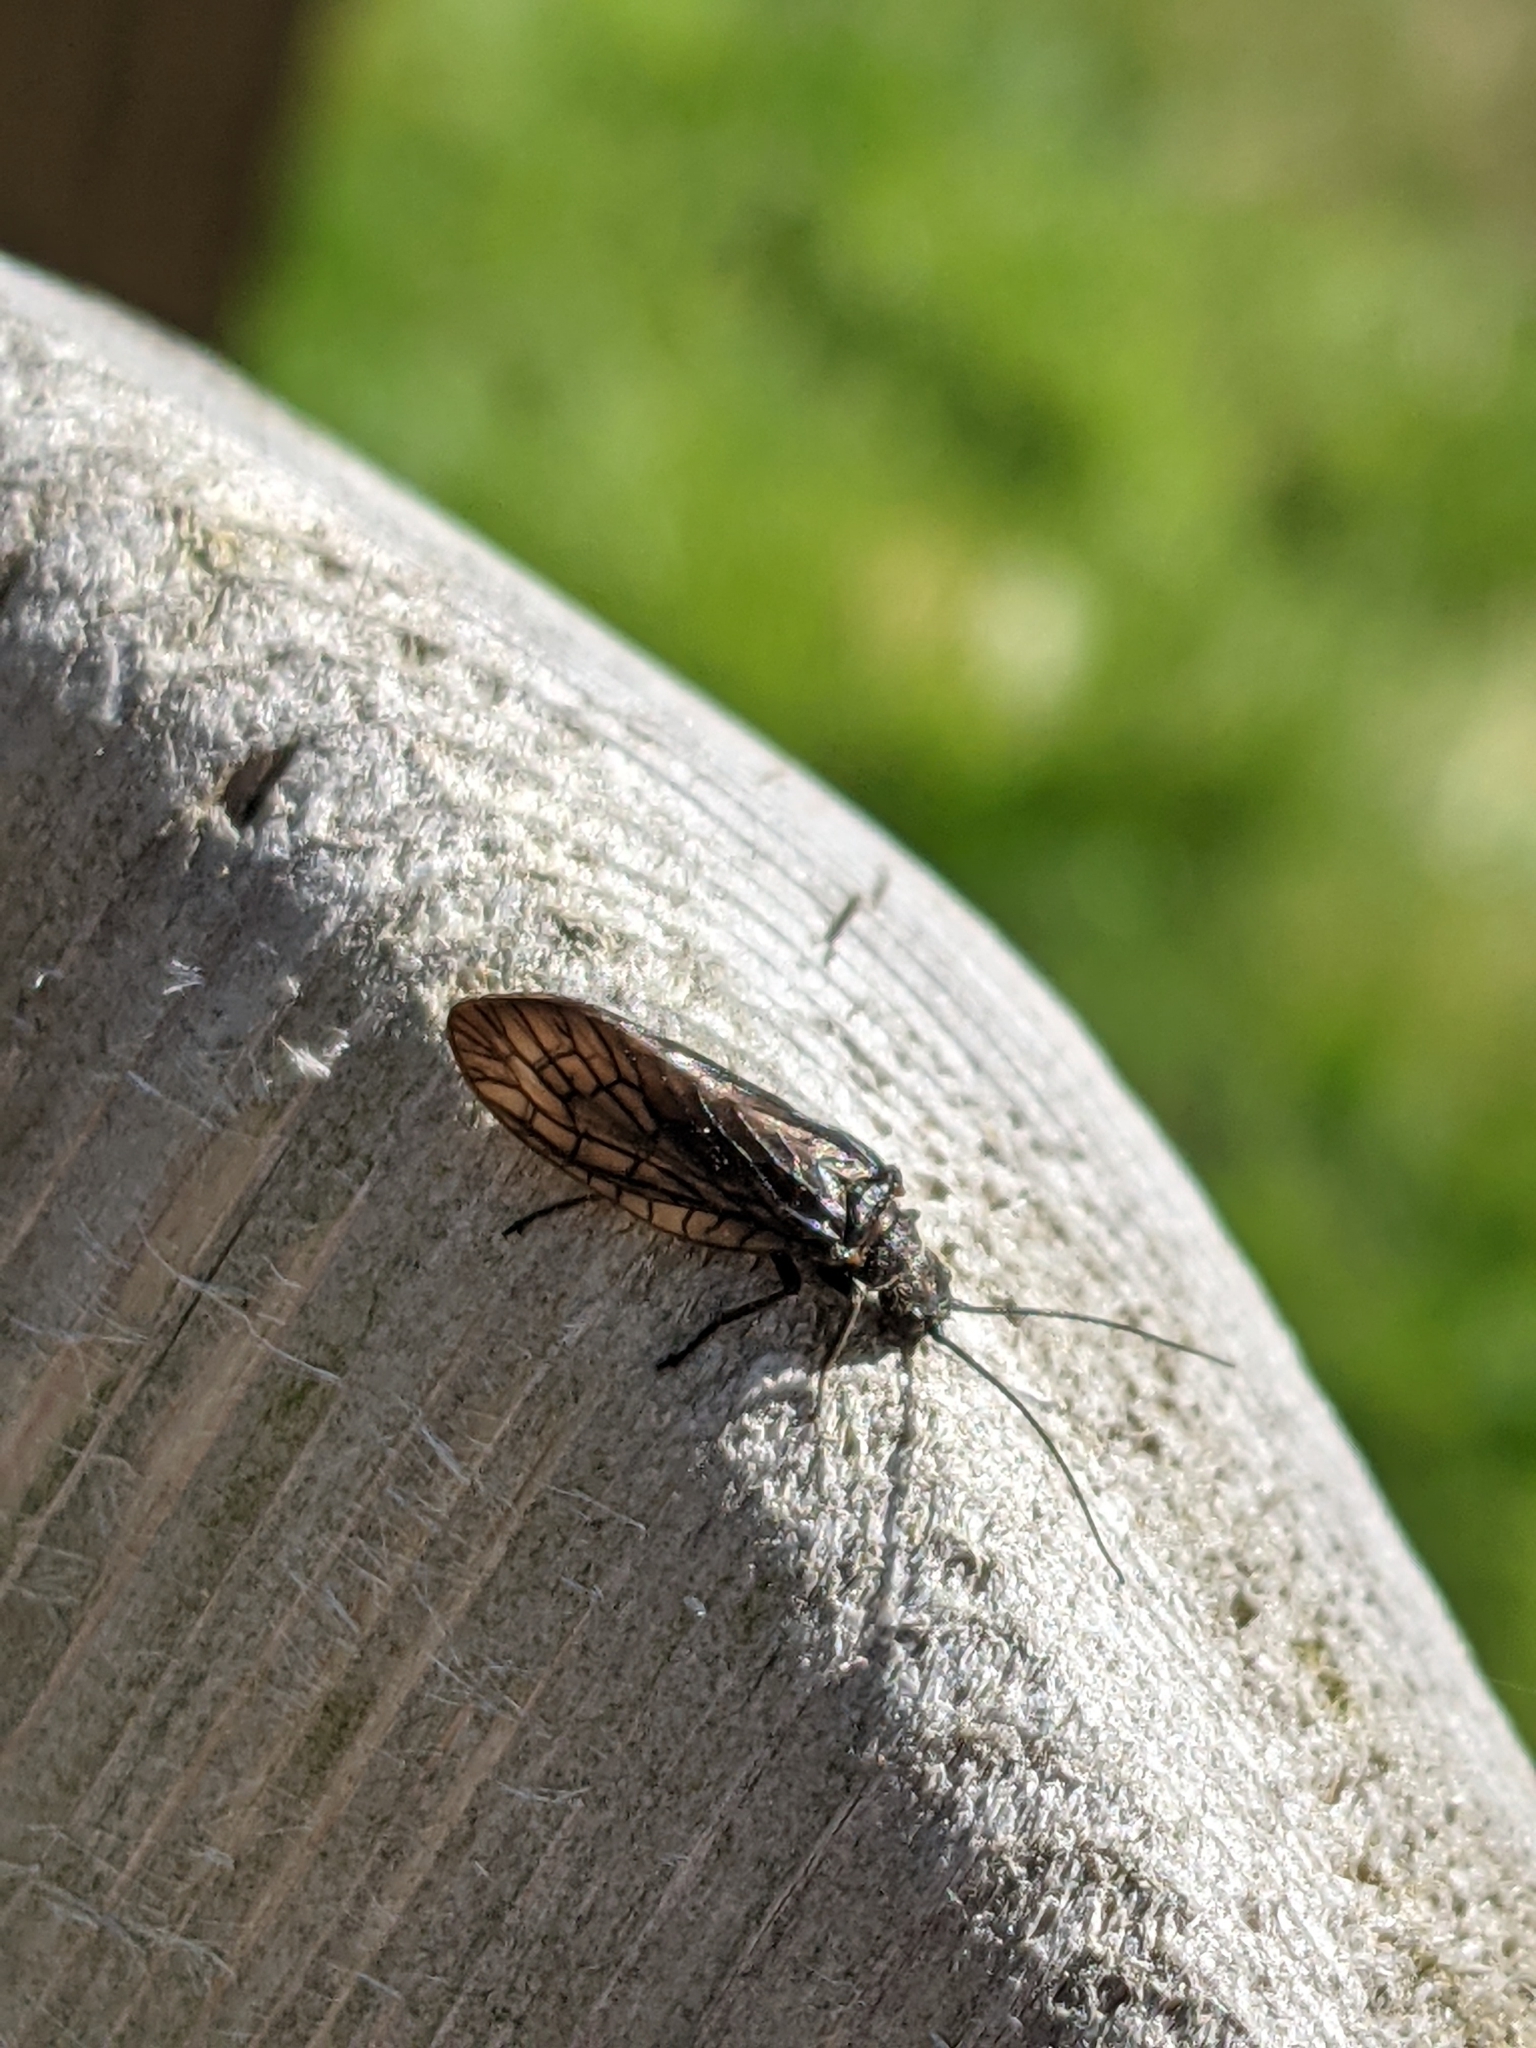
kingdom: Animalia
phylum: Arthropoda
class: Insecta
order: Megaloptera
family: Sialidae
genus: Sialis
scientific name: Sialis
